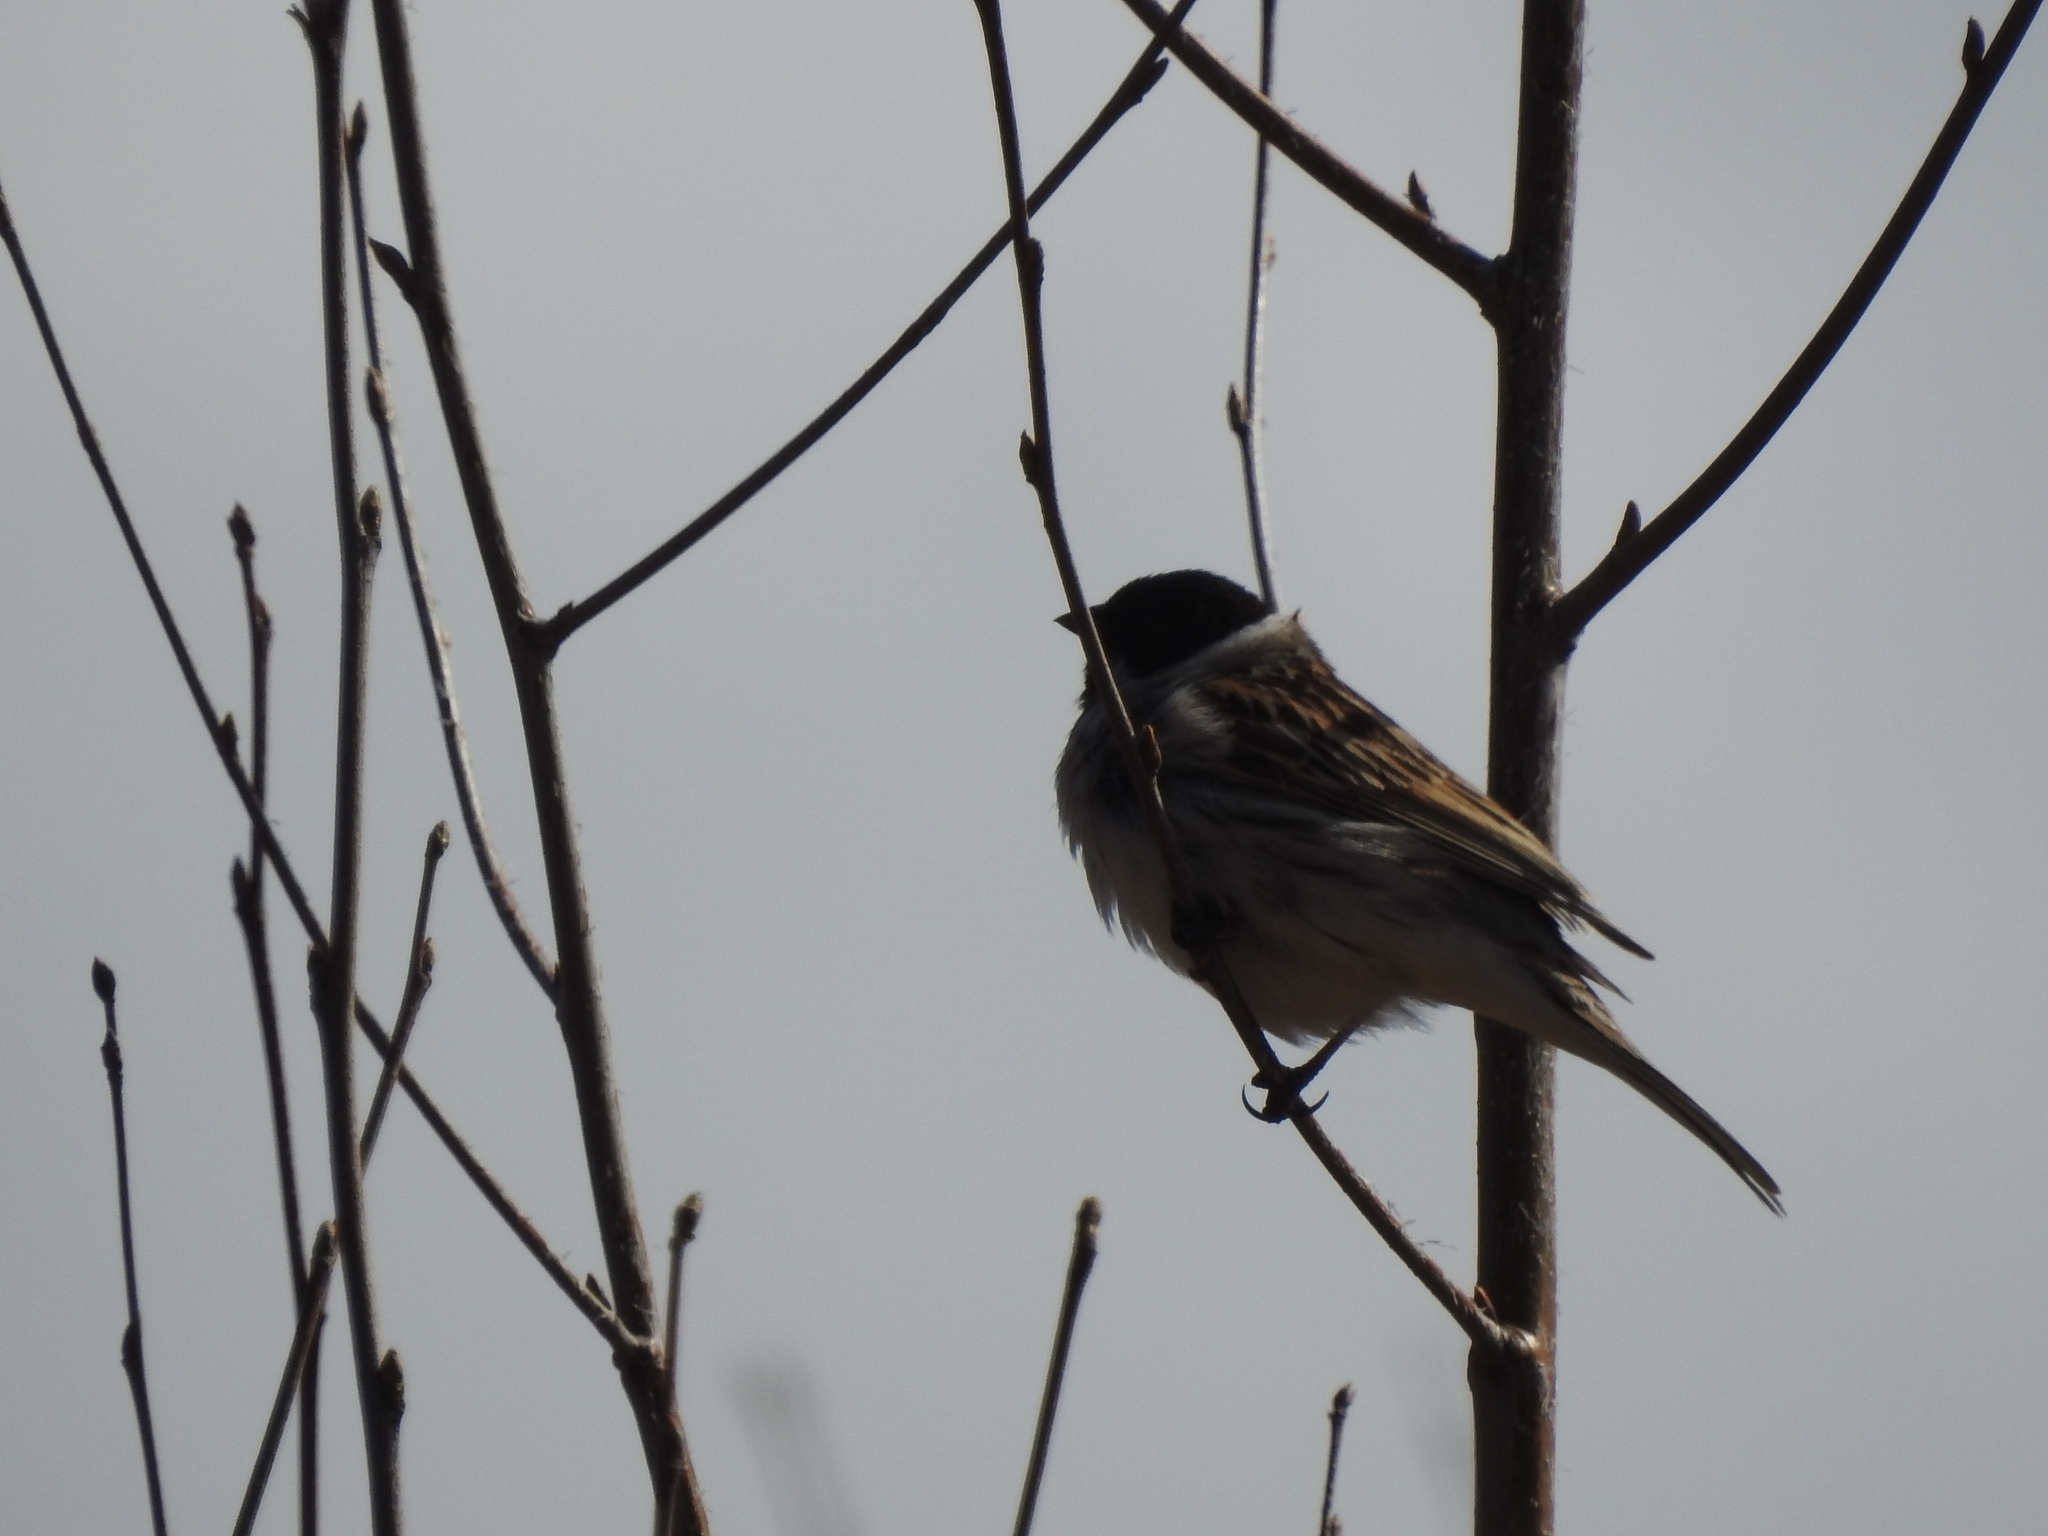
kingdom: Animalia
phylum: Chordata
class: Aves
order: Passeriformes
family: Emberizidae
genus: Emberiza
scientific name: Emberiza schoeniclus
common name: Reed bunting
